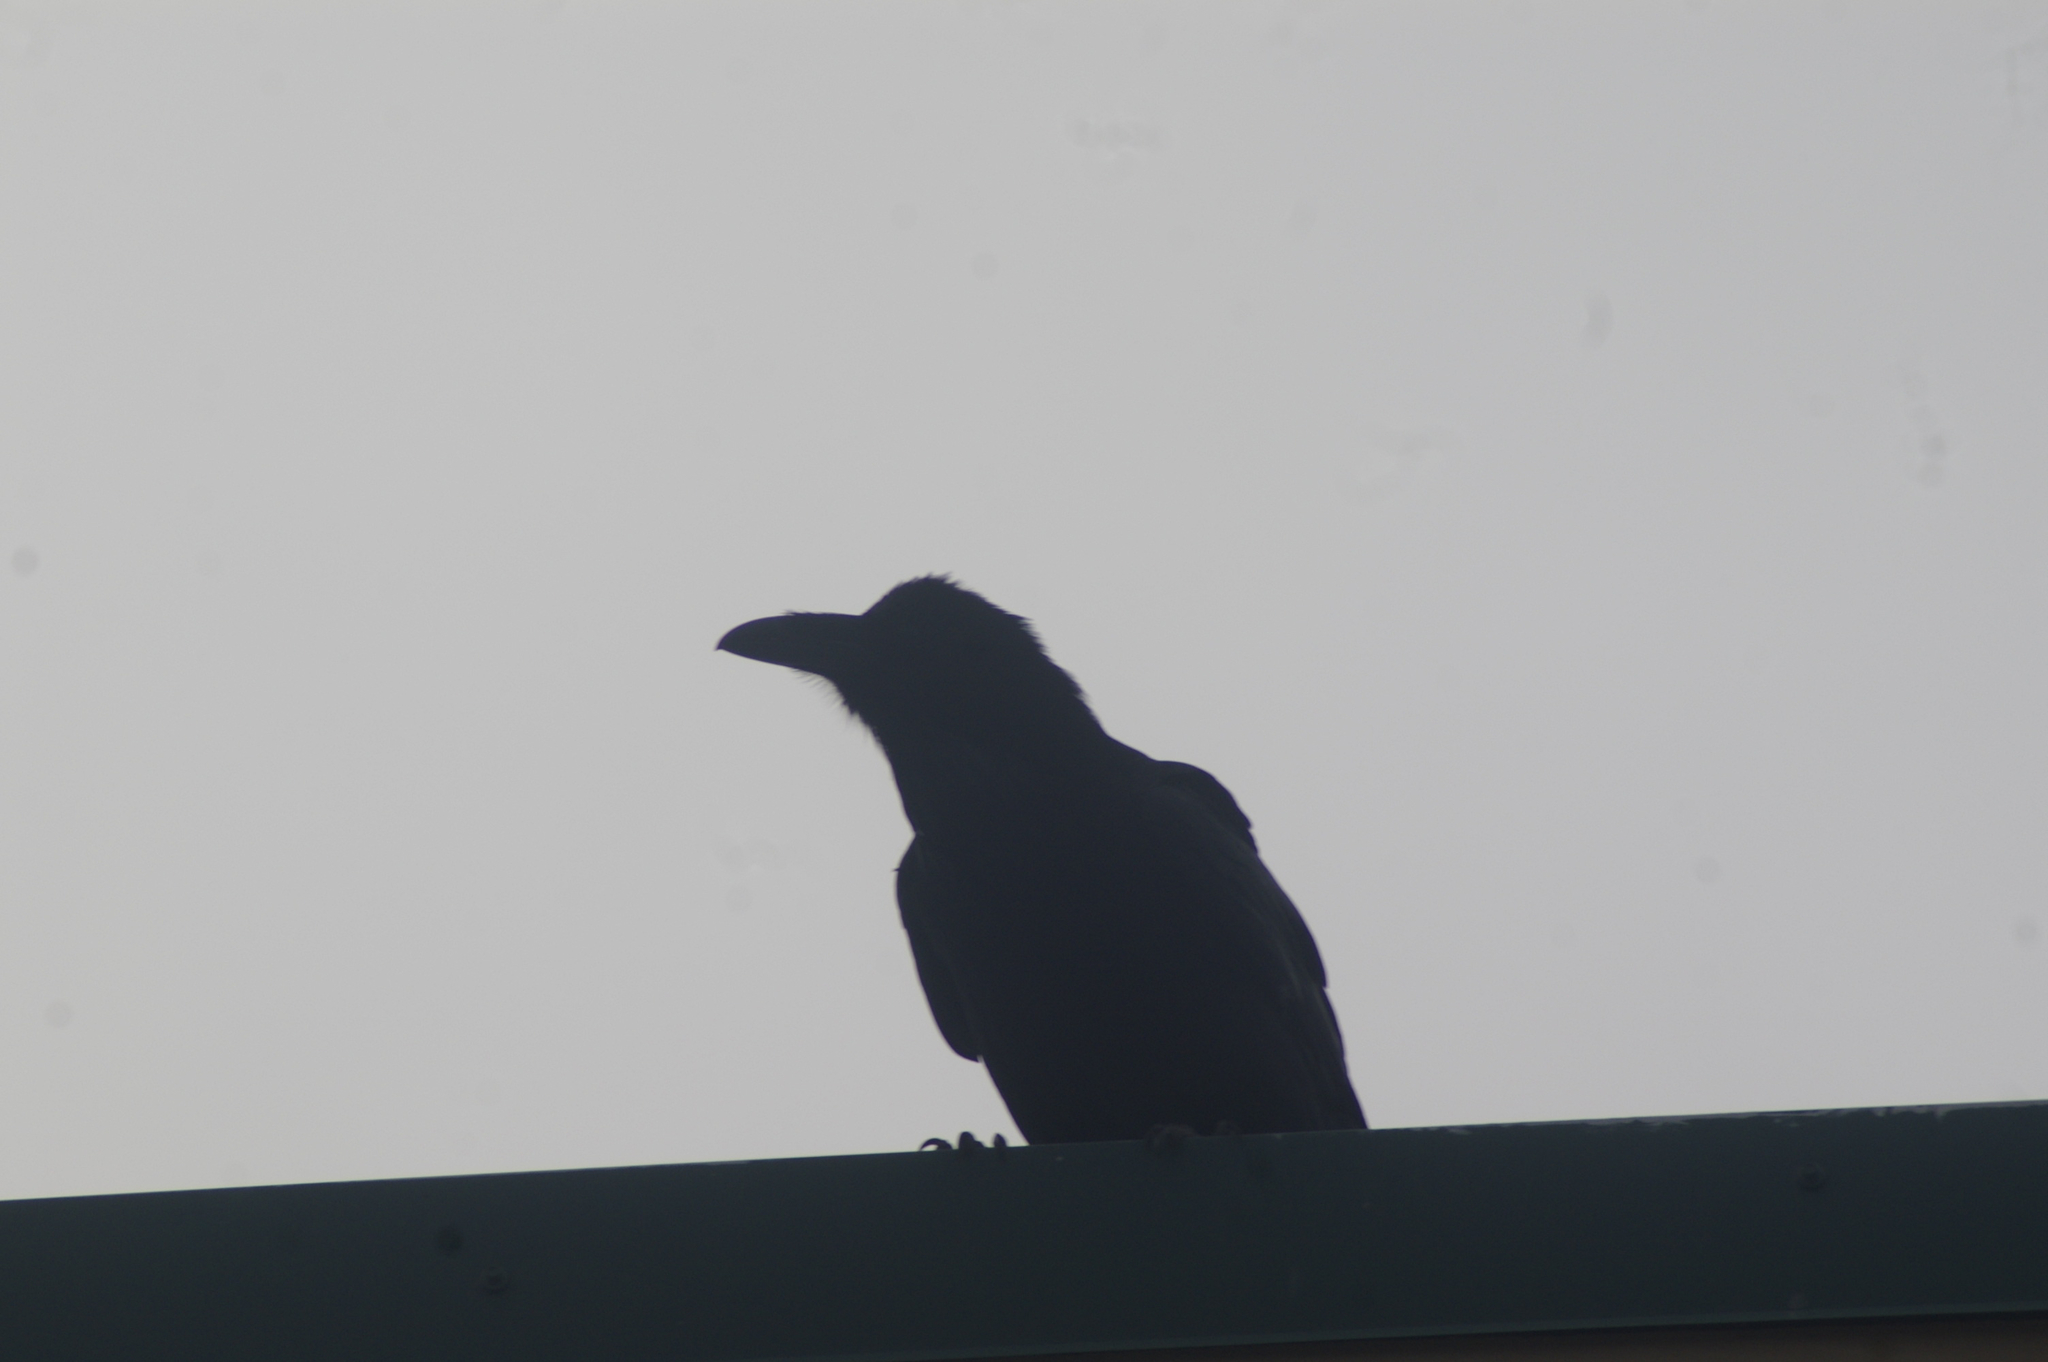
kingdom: Animalia
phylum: Chordata
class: Aves
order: Passeriformes
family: Corvidae
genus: Corvus
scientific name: Corvus corax
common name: Common raven
